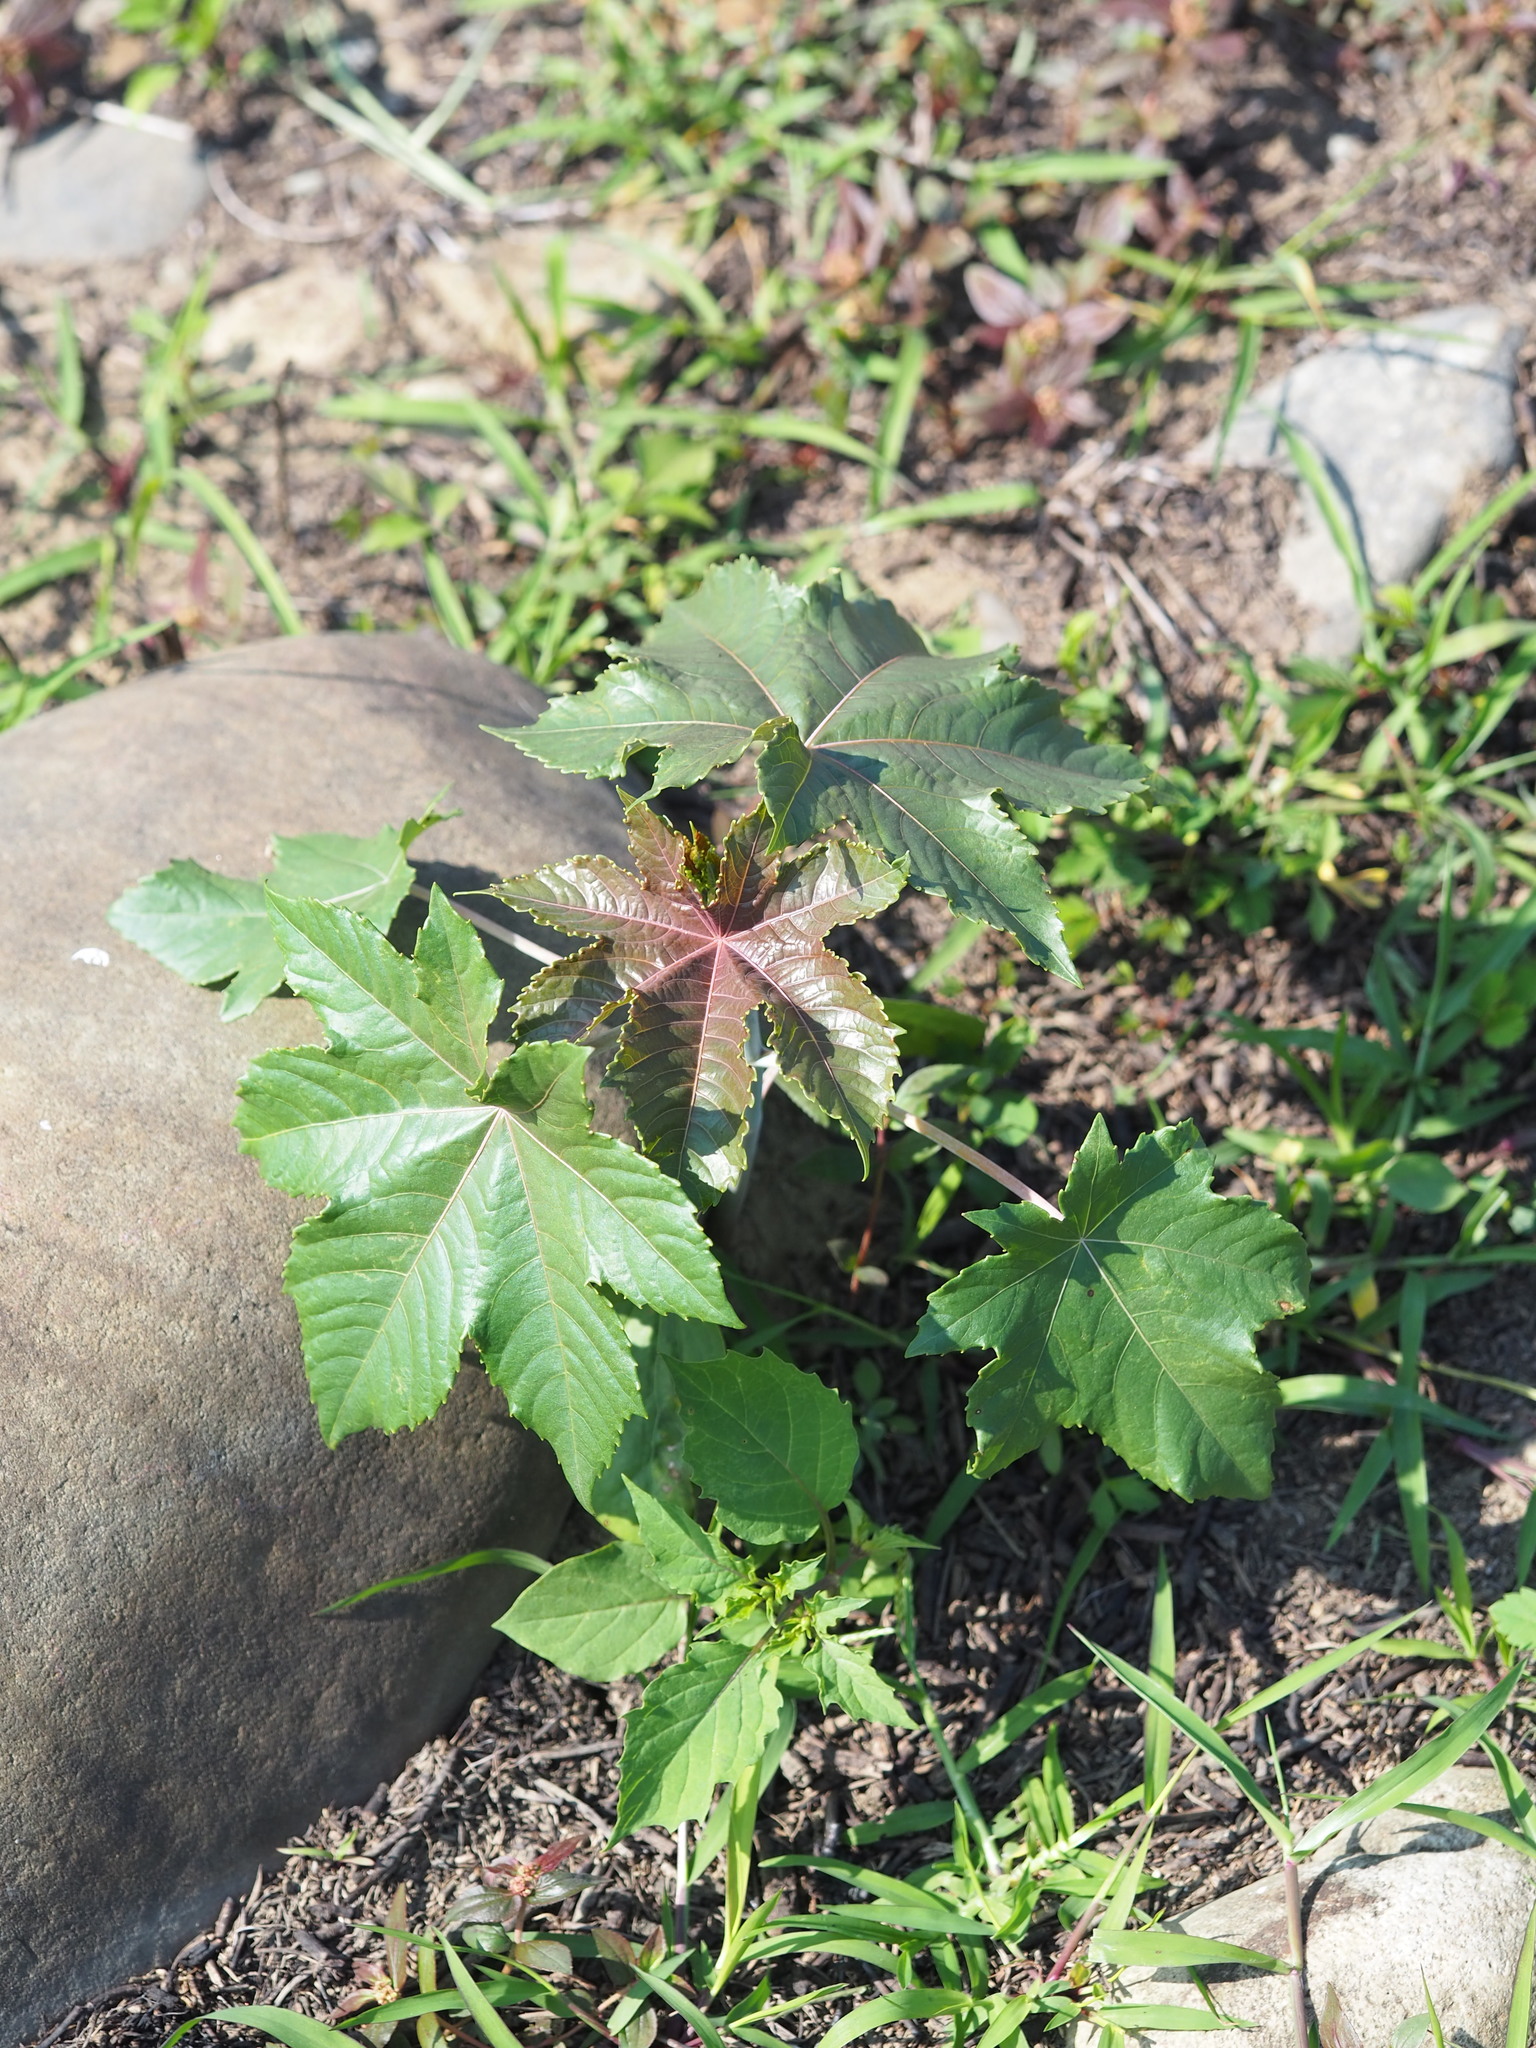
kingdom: Plantae
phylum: Tracheophyta
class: Magnoliopsida
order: Malpighiales
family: Euphorbiaceae
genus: Ricinus
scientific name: Ricinus communis
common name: Castor-oil-plant
